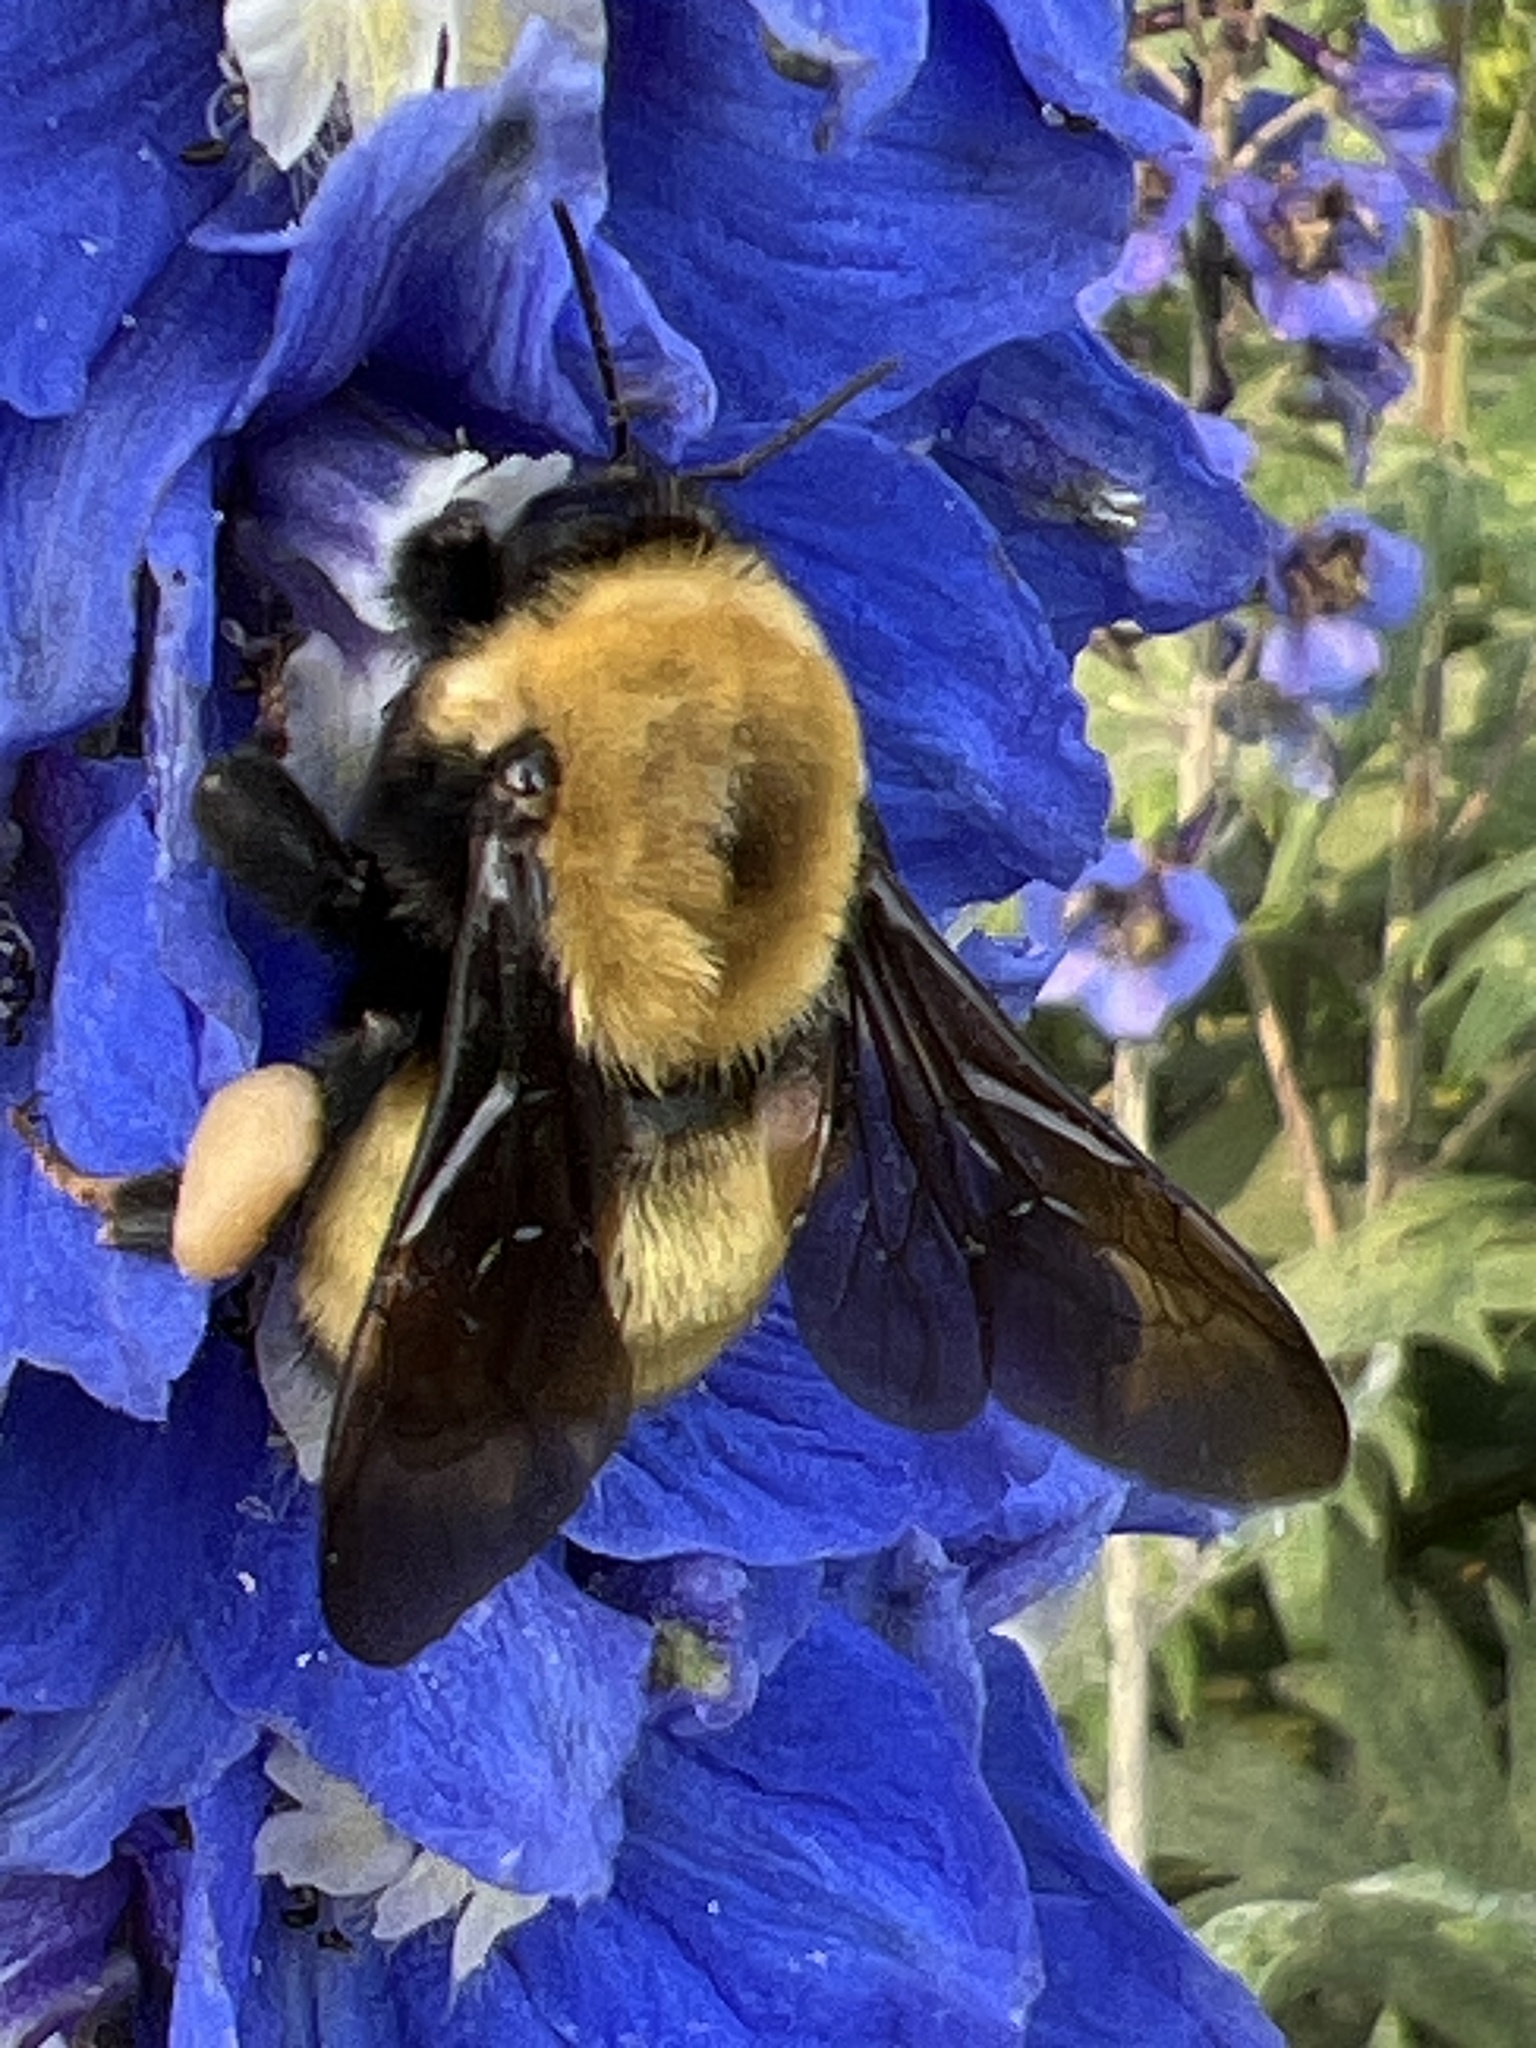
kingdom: Animalia
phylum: Arthropoda
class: Insecta
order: Hymenoptera
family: Apidae
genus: Bombus
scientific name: Bombus nevadensis
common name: Nevada bumble bee
